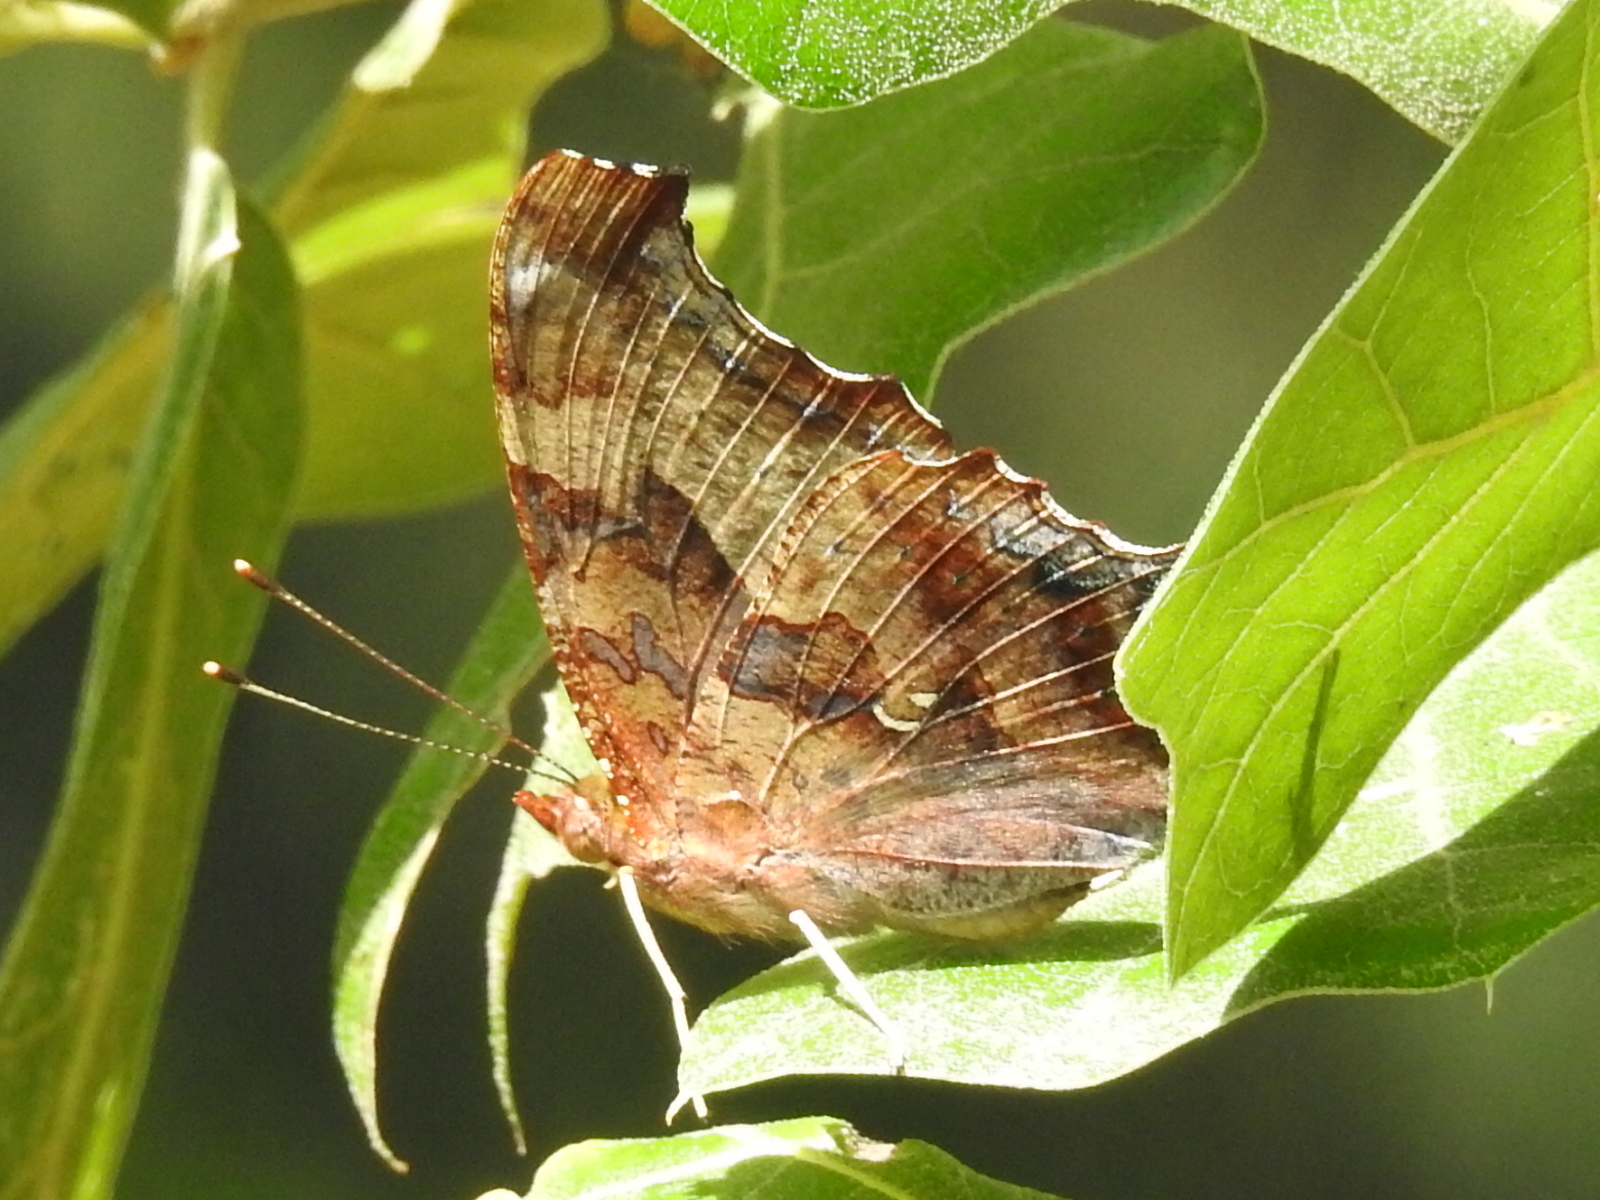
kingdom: Animalia
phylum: Arthropoda
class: Insecta
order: Lepidoptera
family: Nymphalidae
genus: Polygonia
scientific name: Polygonia interrogationis
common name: Question mark
